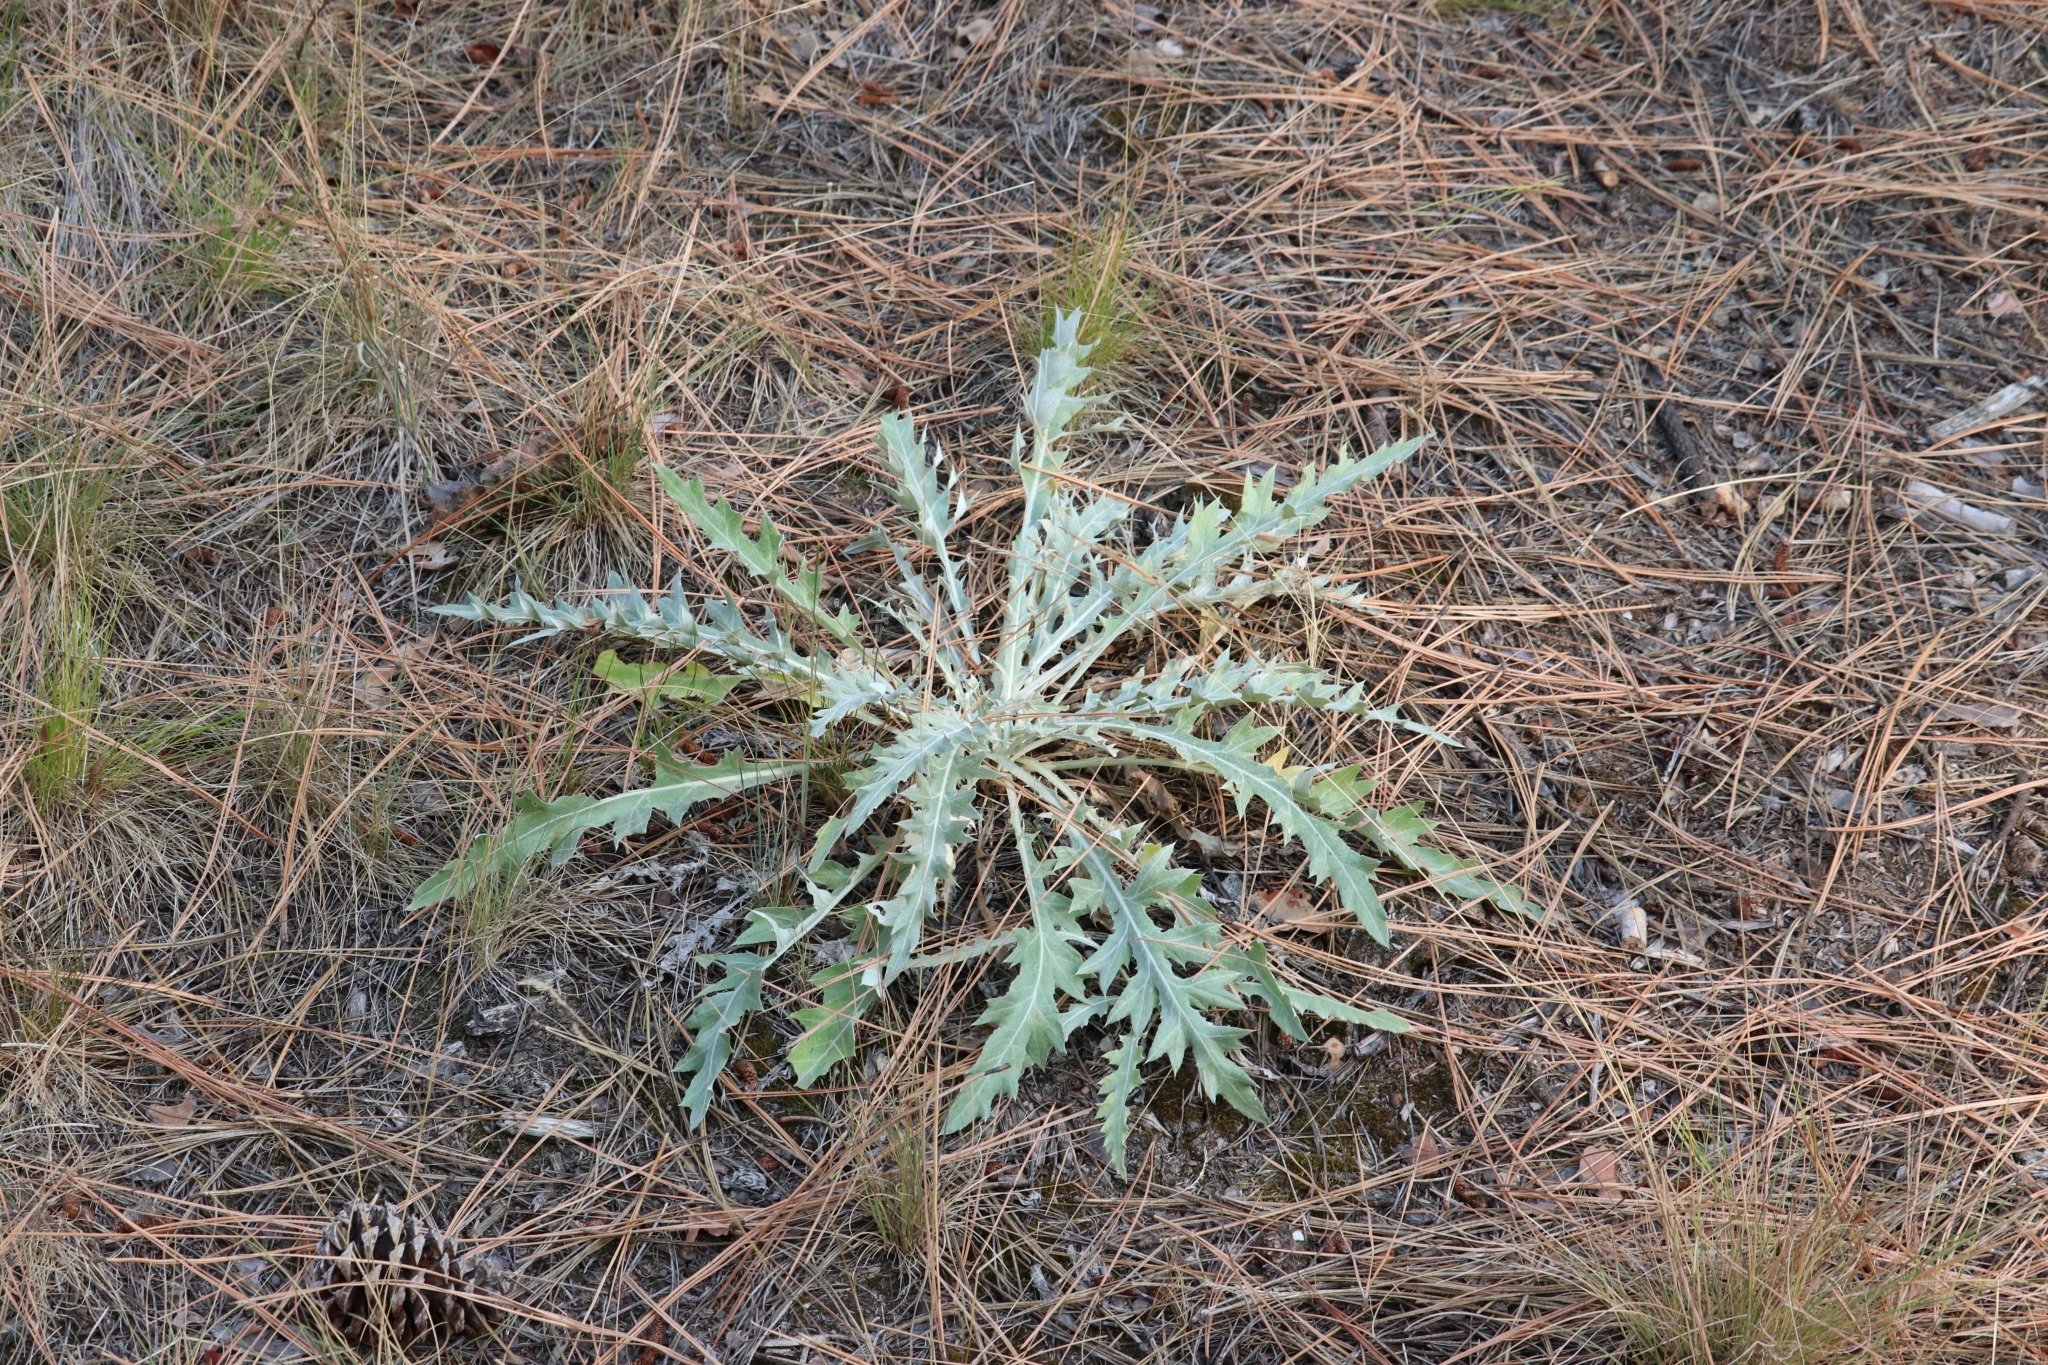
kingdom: Plantae
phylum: Tracheophyta
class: Magnoliopsida
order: Asterales
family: Asteraceae
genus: Cirsium
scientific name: Cirsium undulatum
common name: Pasture thistle
